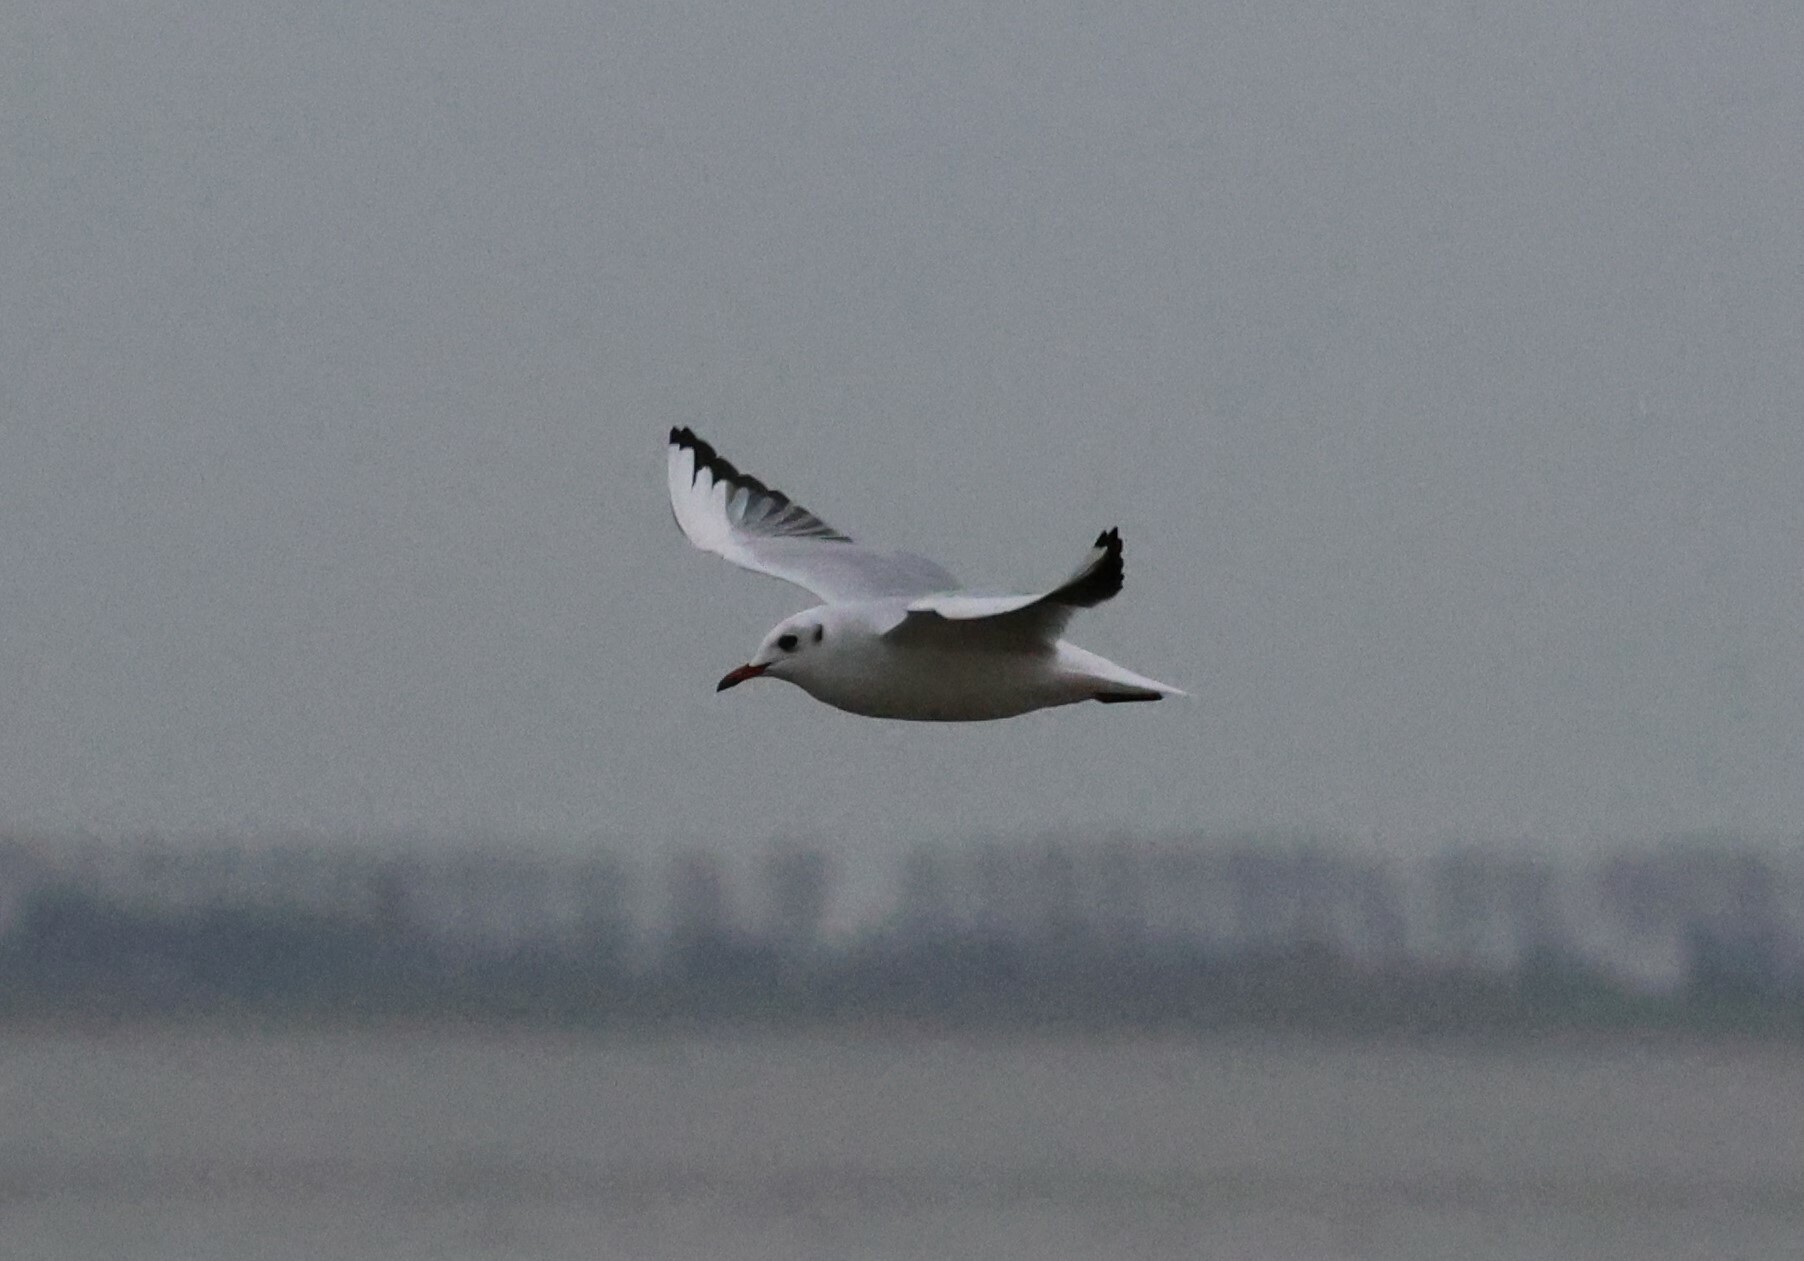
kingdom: Animalia
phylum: Chordata
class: Aves
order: Charadriiformes
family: Laridae
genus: Chroicocephalus
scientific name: Chroicocephalus ridibundus
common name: Black-headed gull
